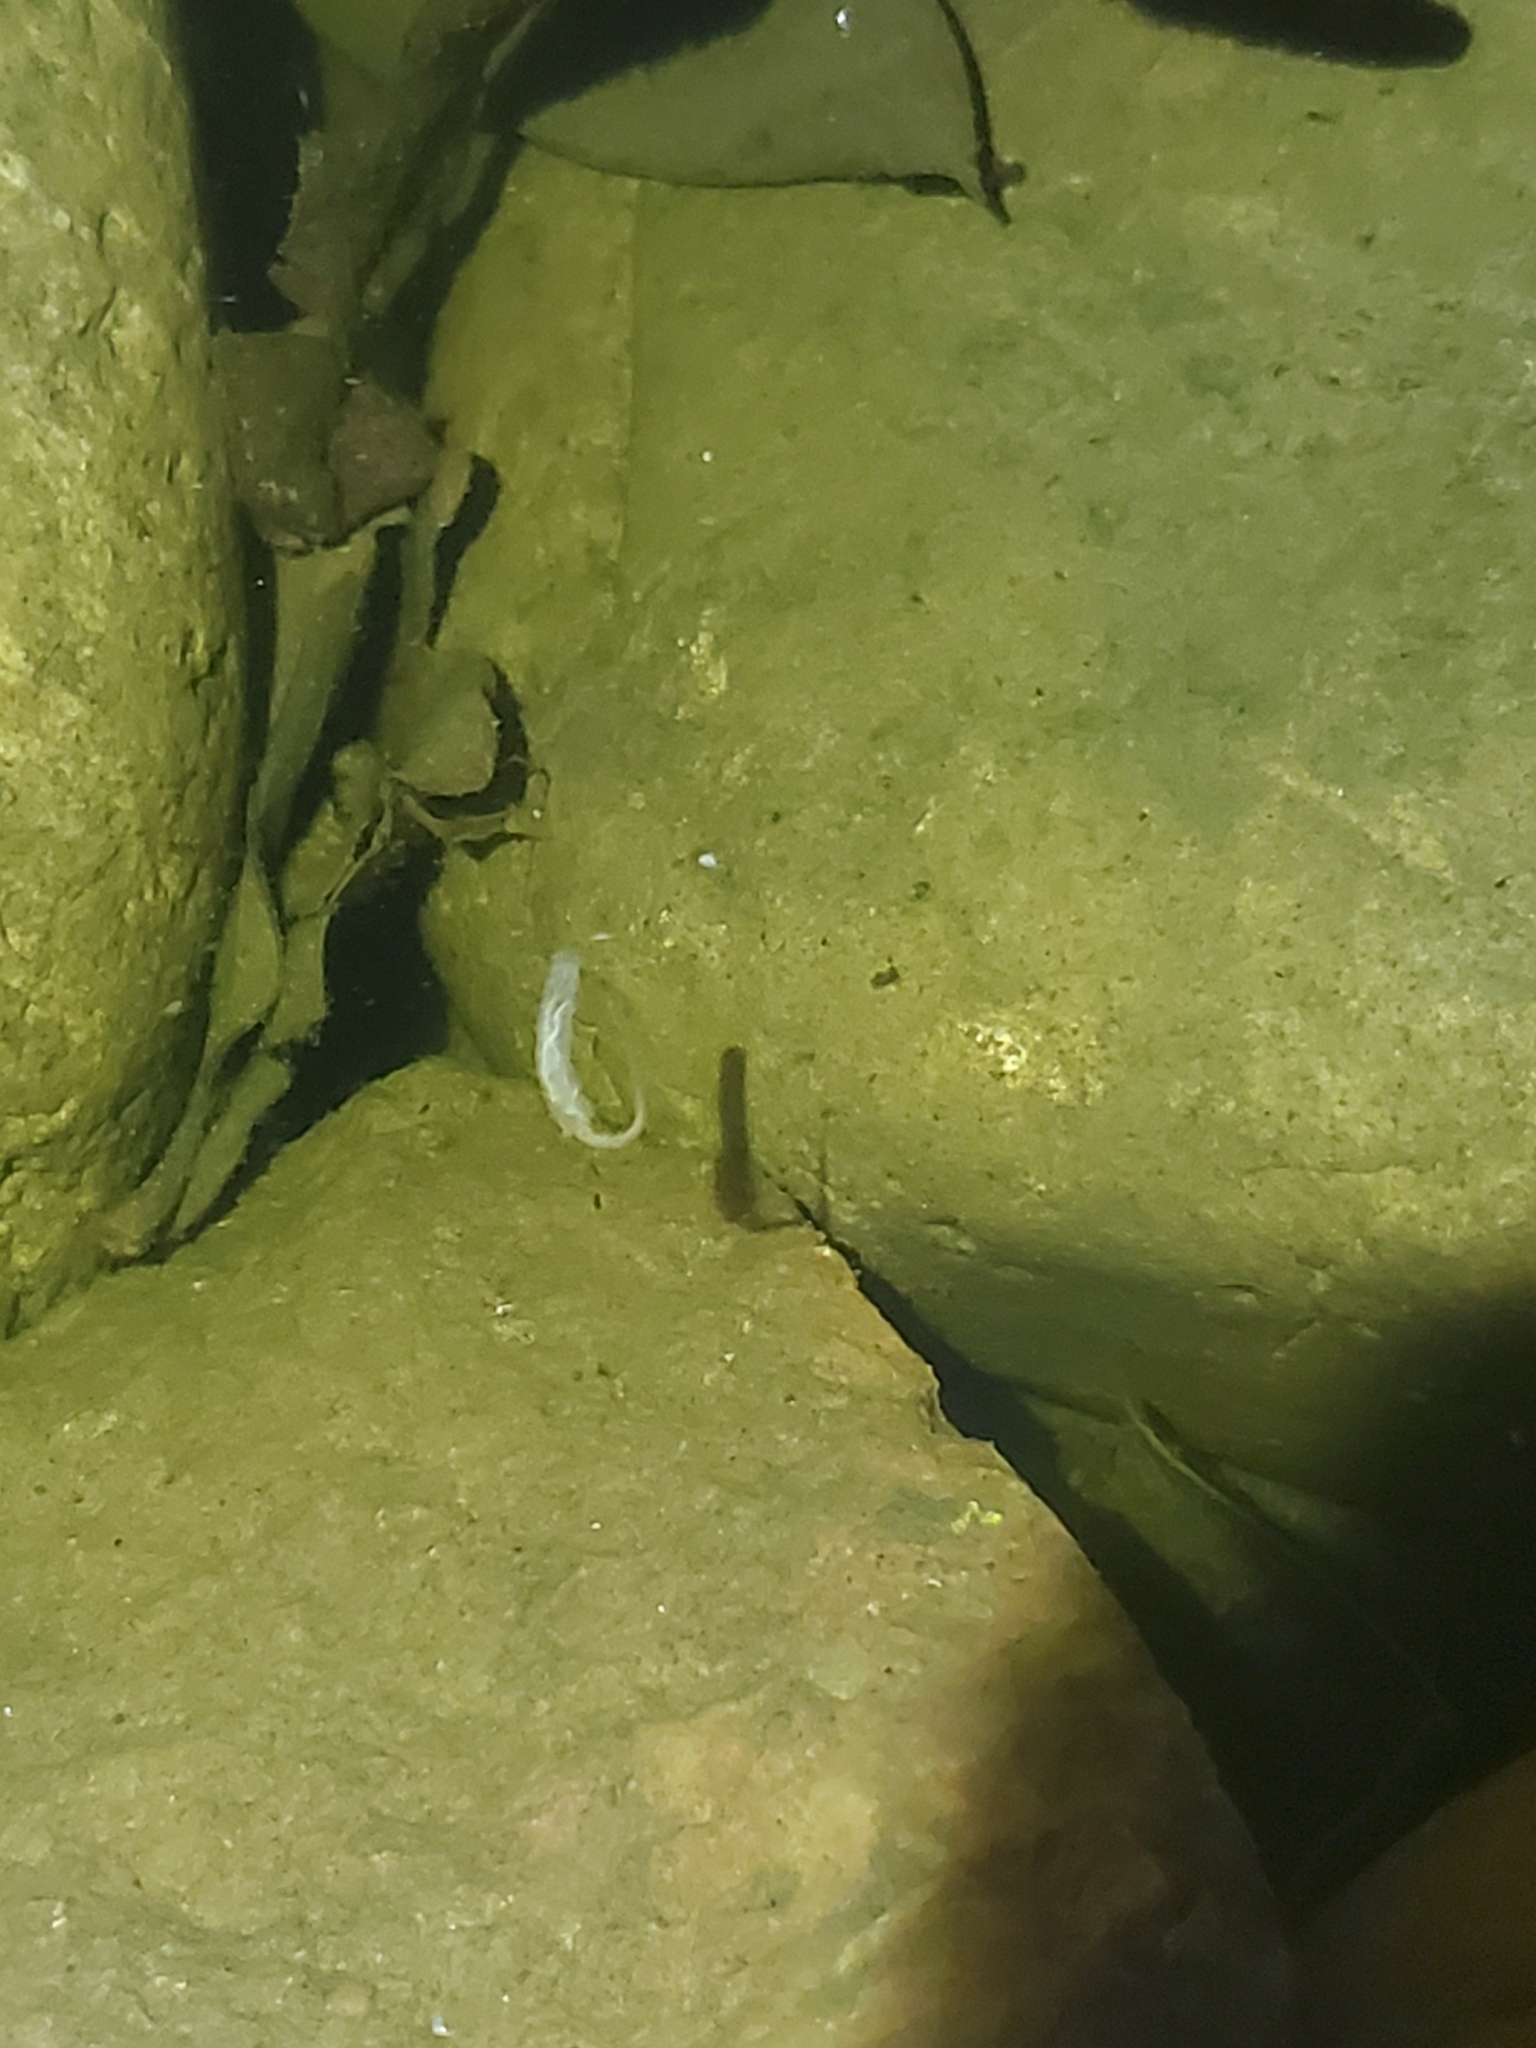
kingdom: Animalia
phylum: Arthropoda
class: Insecta
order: Diptera
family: Syrphidae
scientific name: Syrphidae
